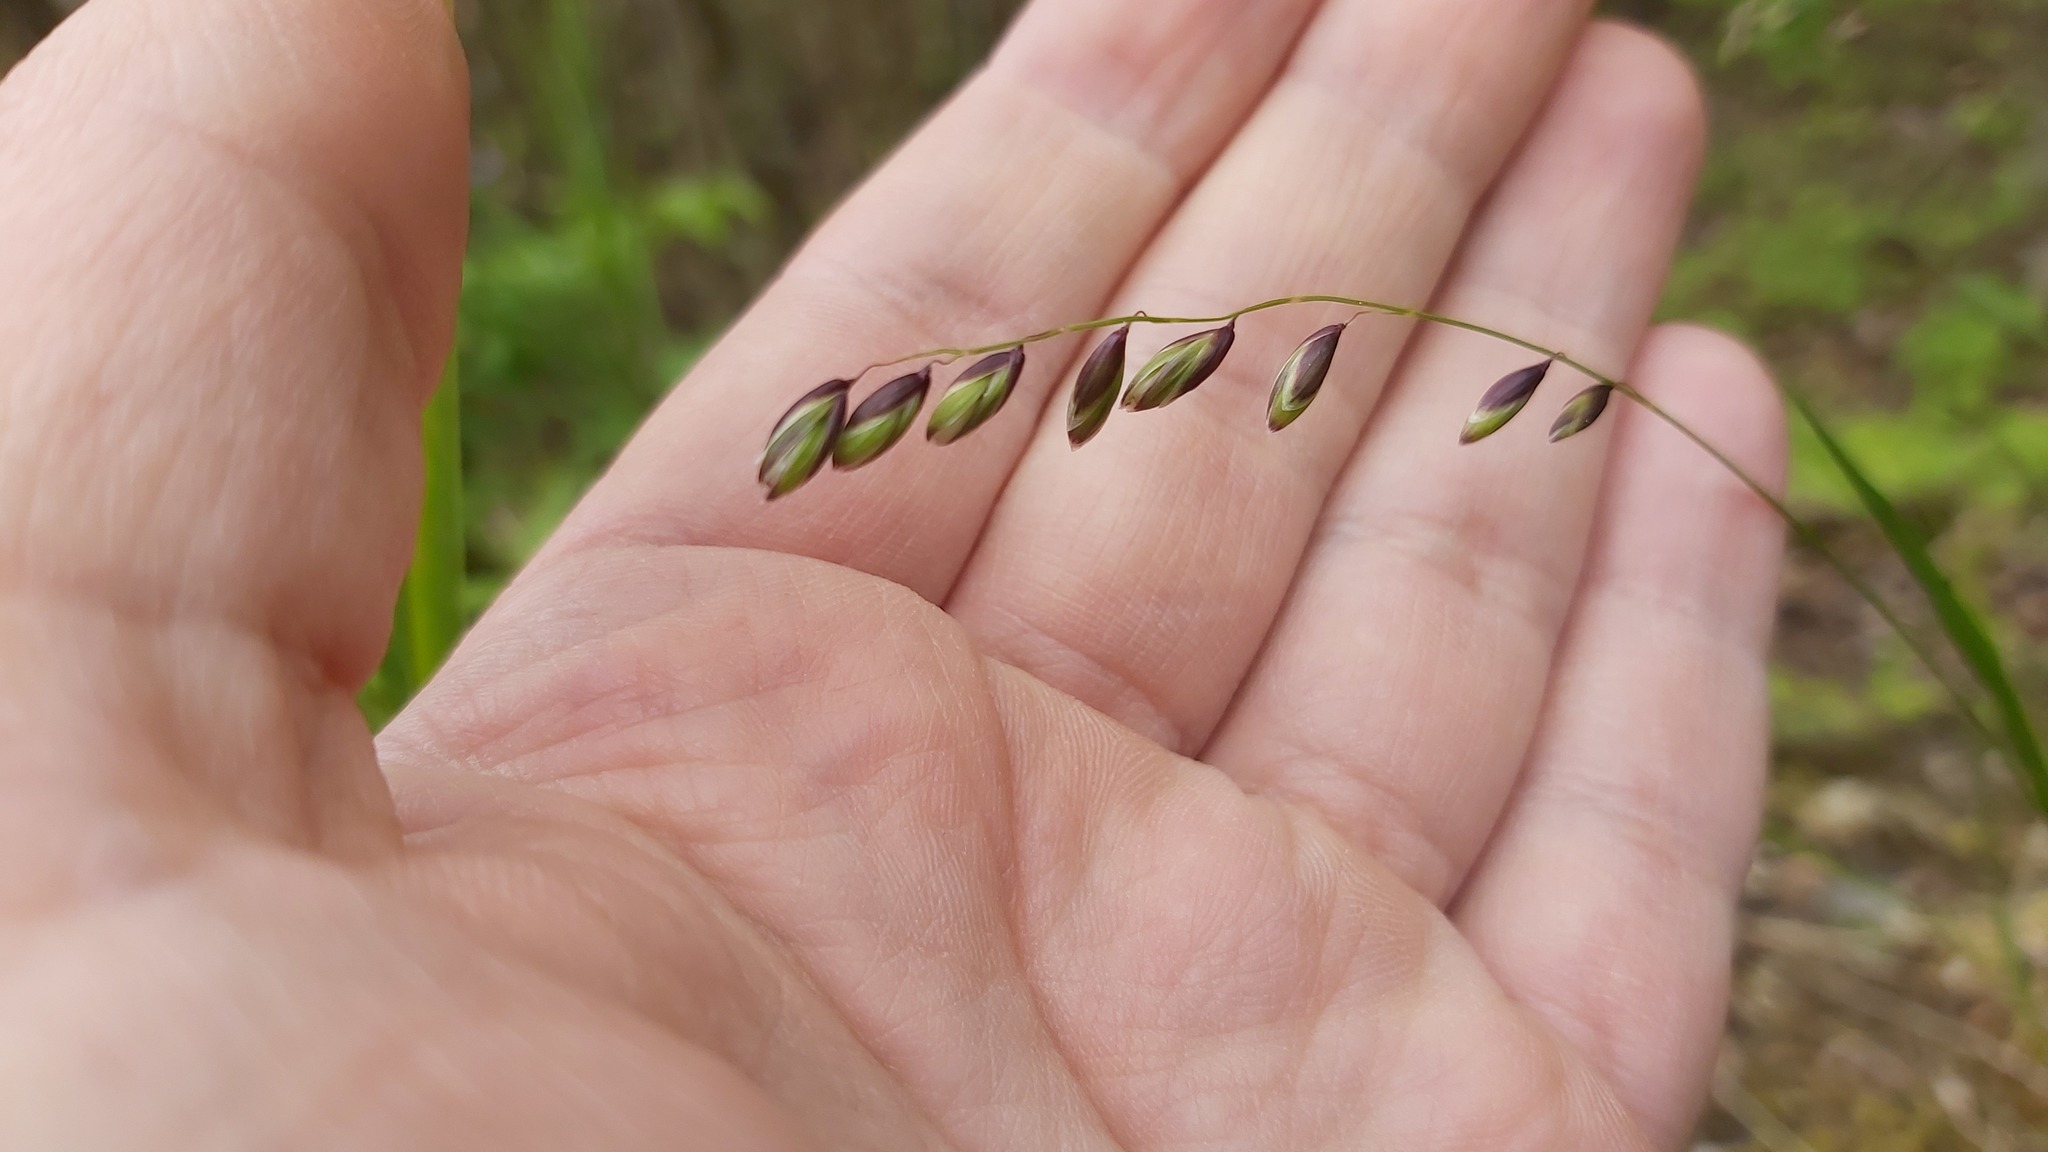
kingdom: Plantae
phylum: Tracheophyta
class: Liliopsida
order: Poales
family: Poaceae
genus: Melica
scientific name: Melica nutans
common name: Mountain melick
